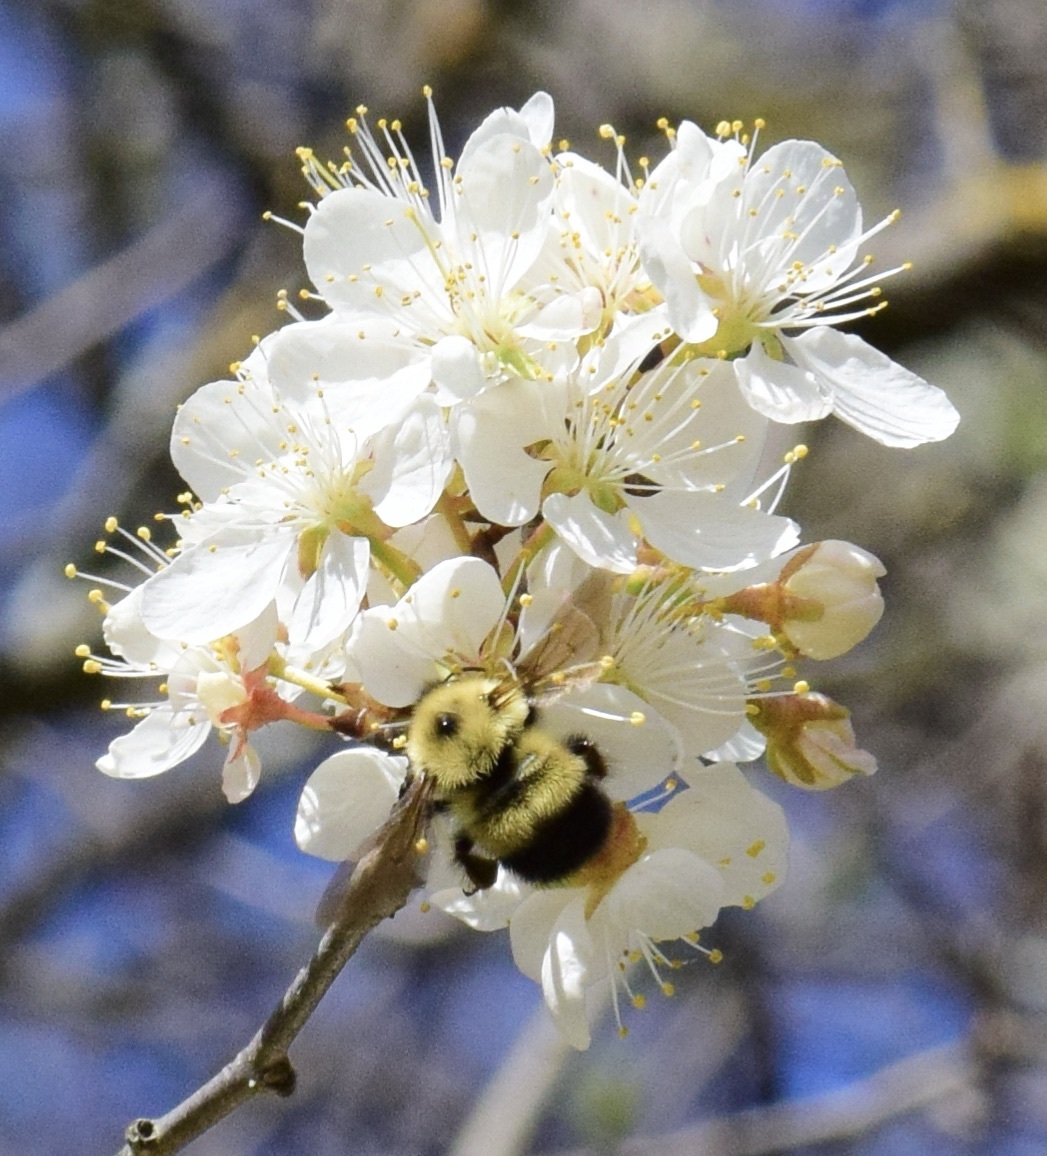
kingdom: Animalia
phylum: Arthropoda
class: Insecta
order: Hymenoptera
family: Apidae
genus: Pyrobombus
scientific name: Pyrobombus
